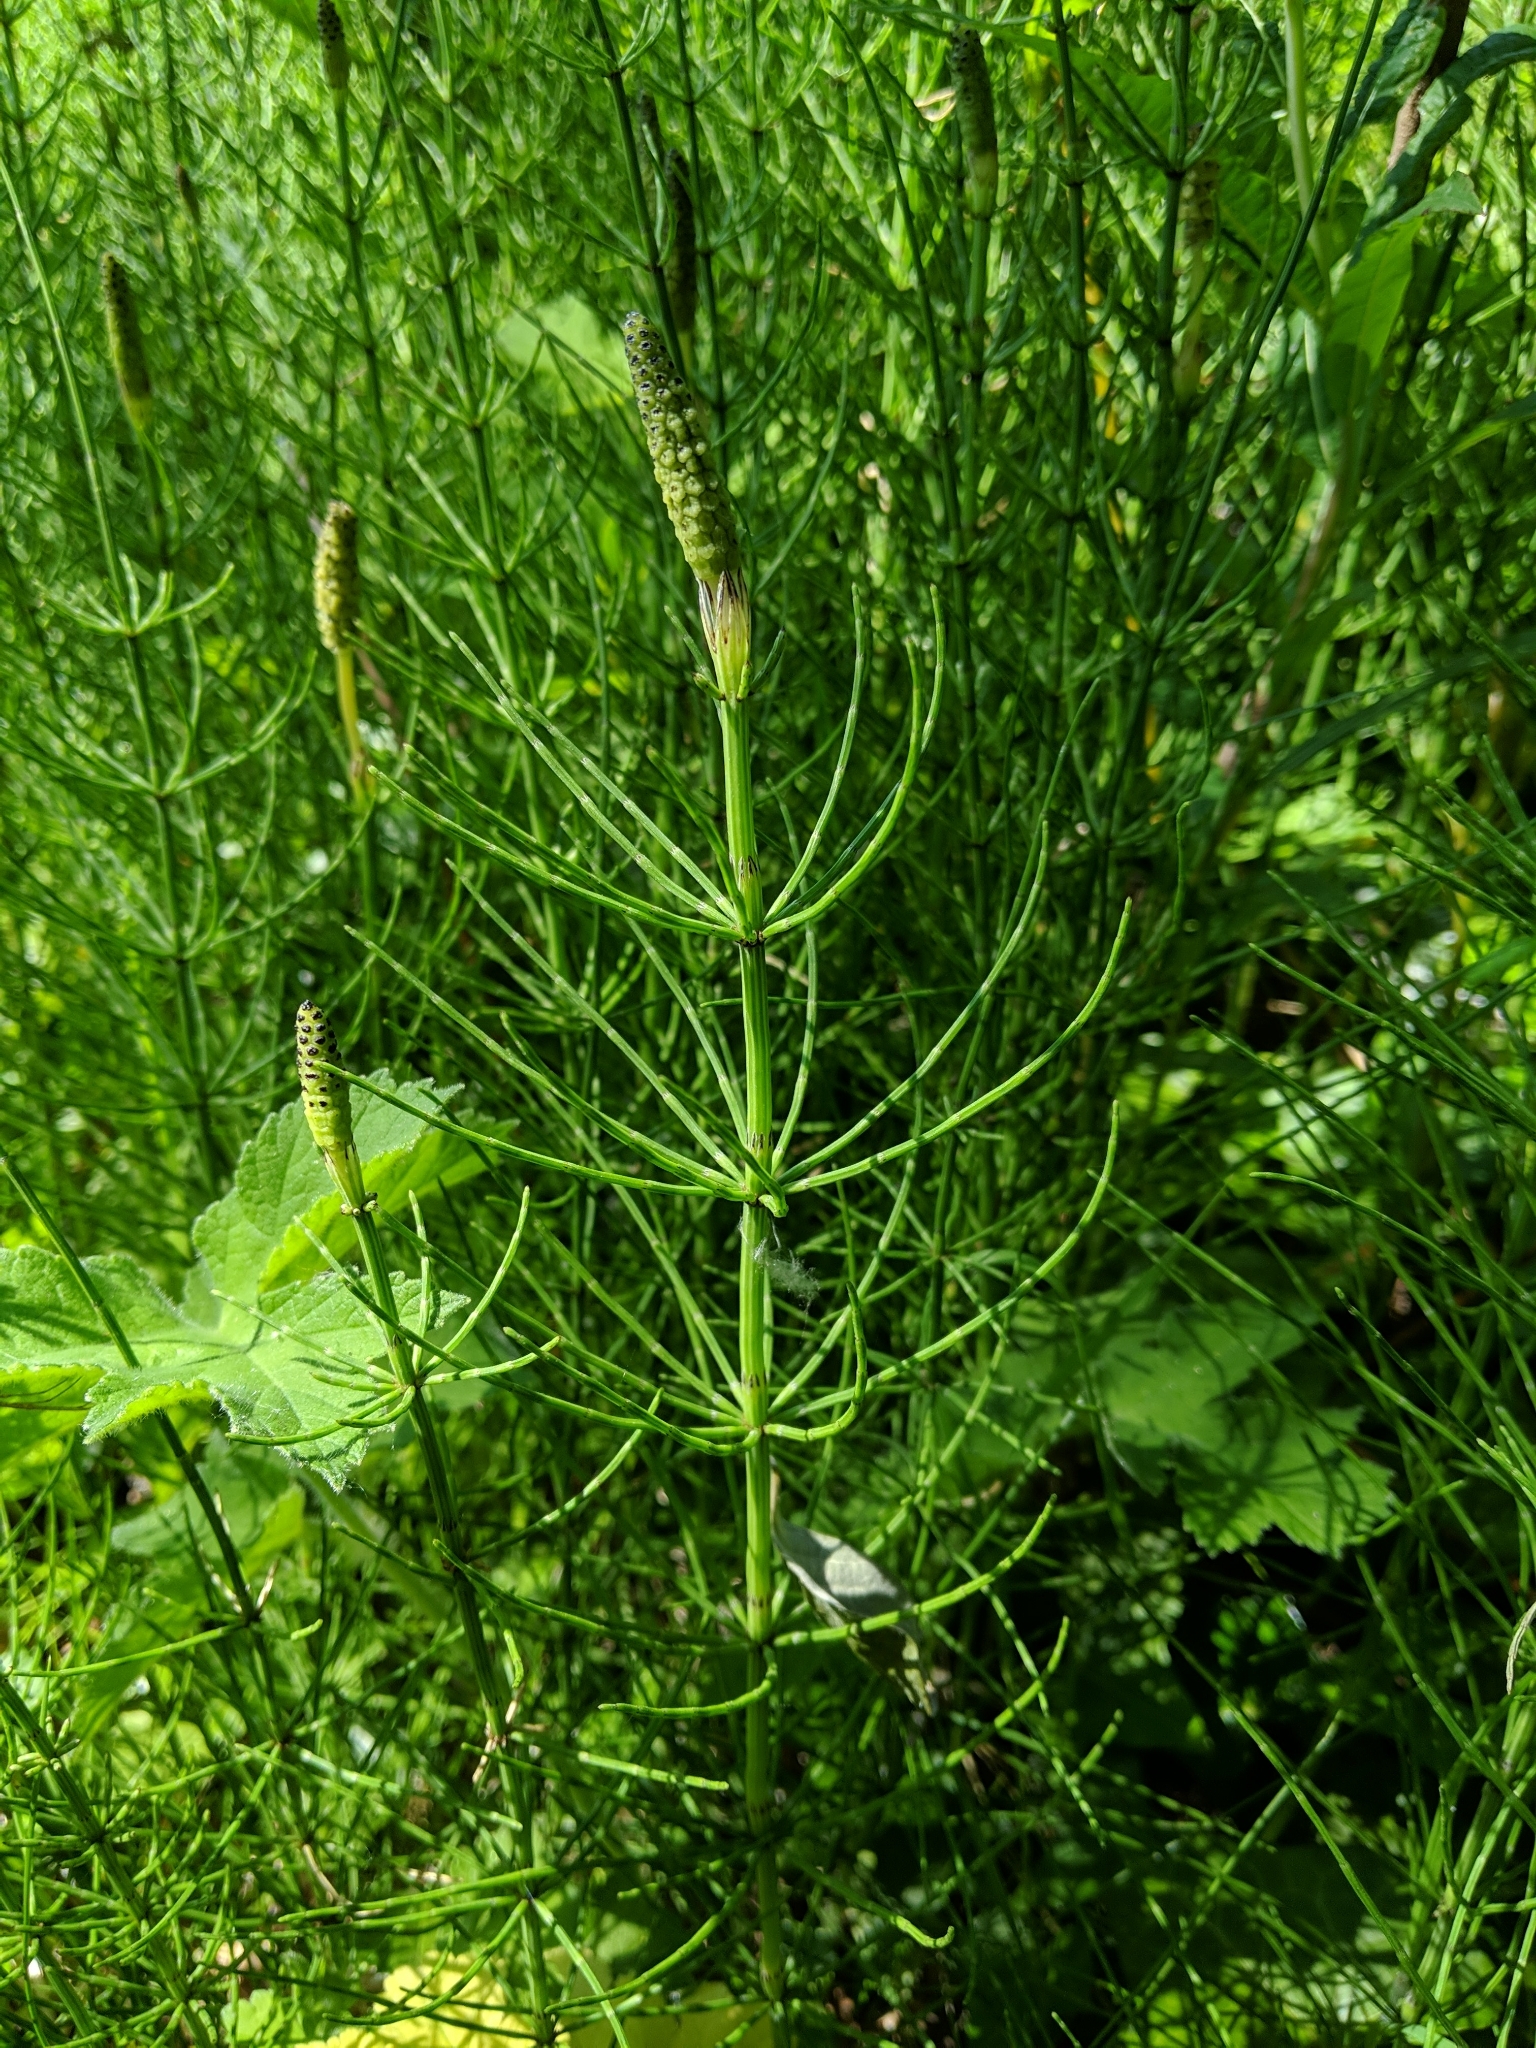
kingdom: Plantae
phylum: Tracheophyta
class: Polypodiopsida
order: Equisetales
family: Equisetaceae
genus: Equisetum
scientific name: Equisetum palustre
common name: Marsh horsetail
